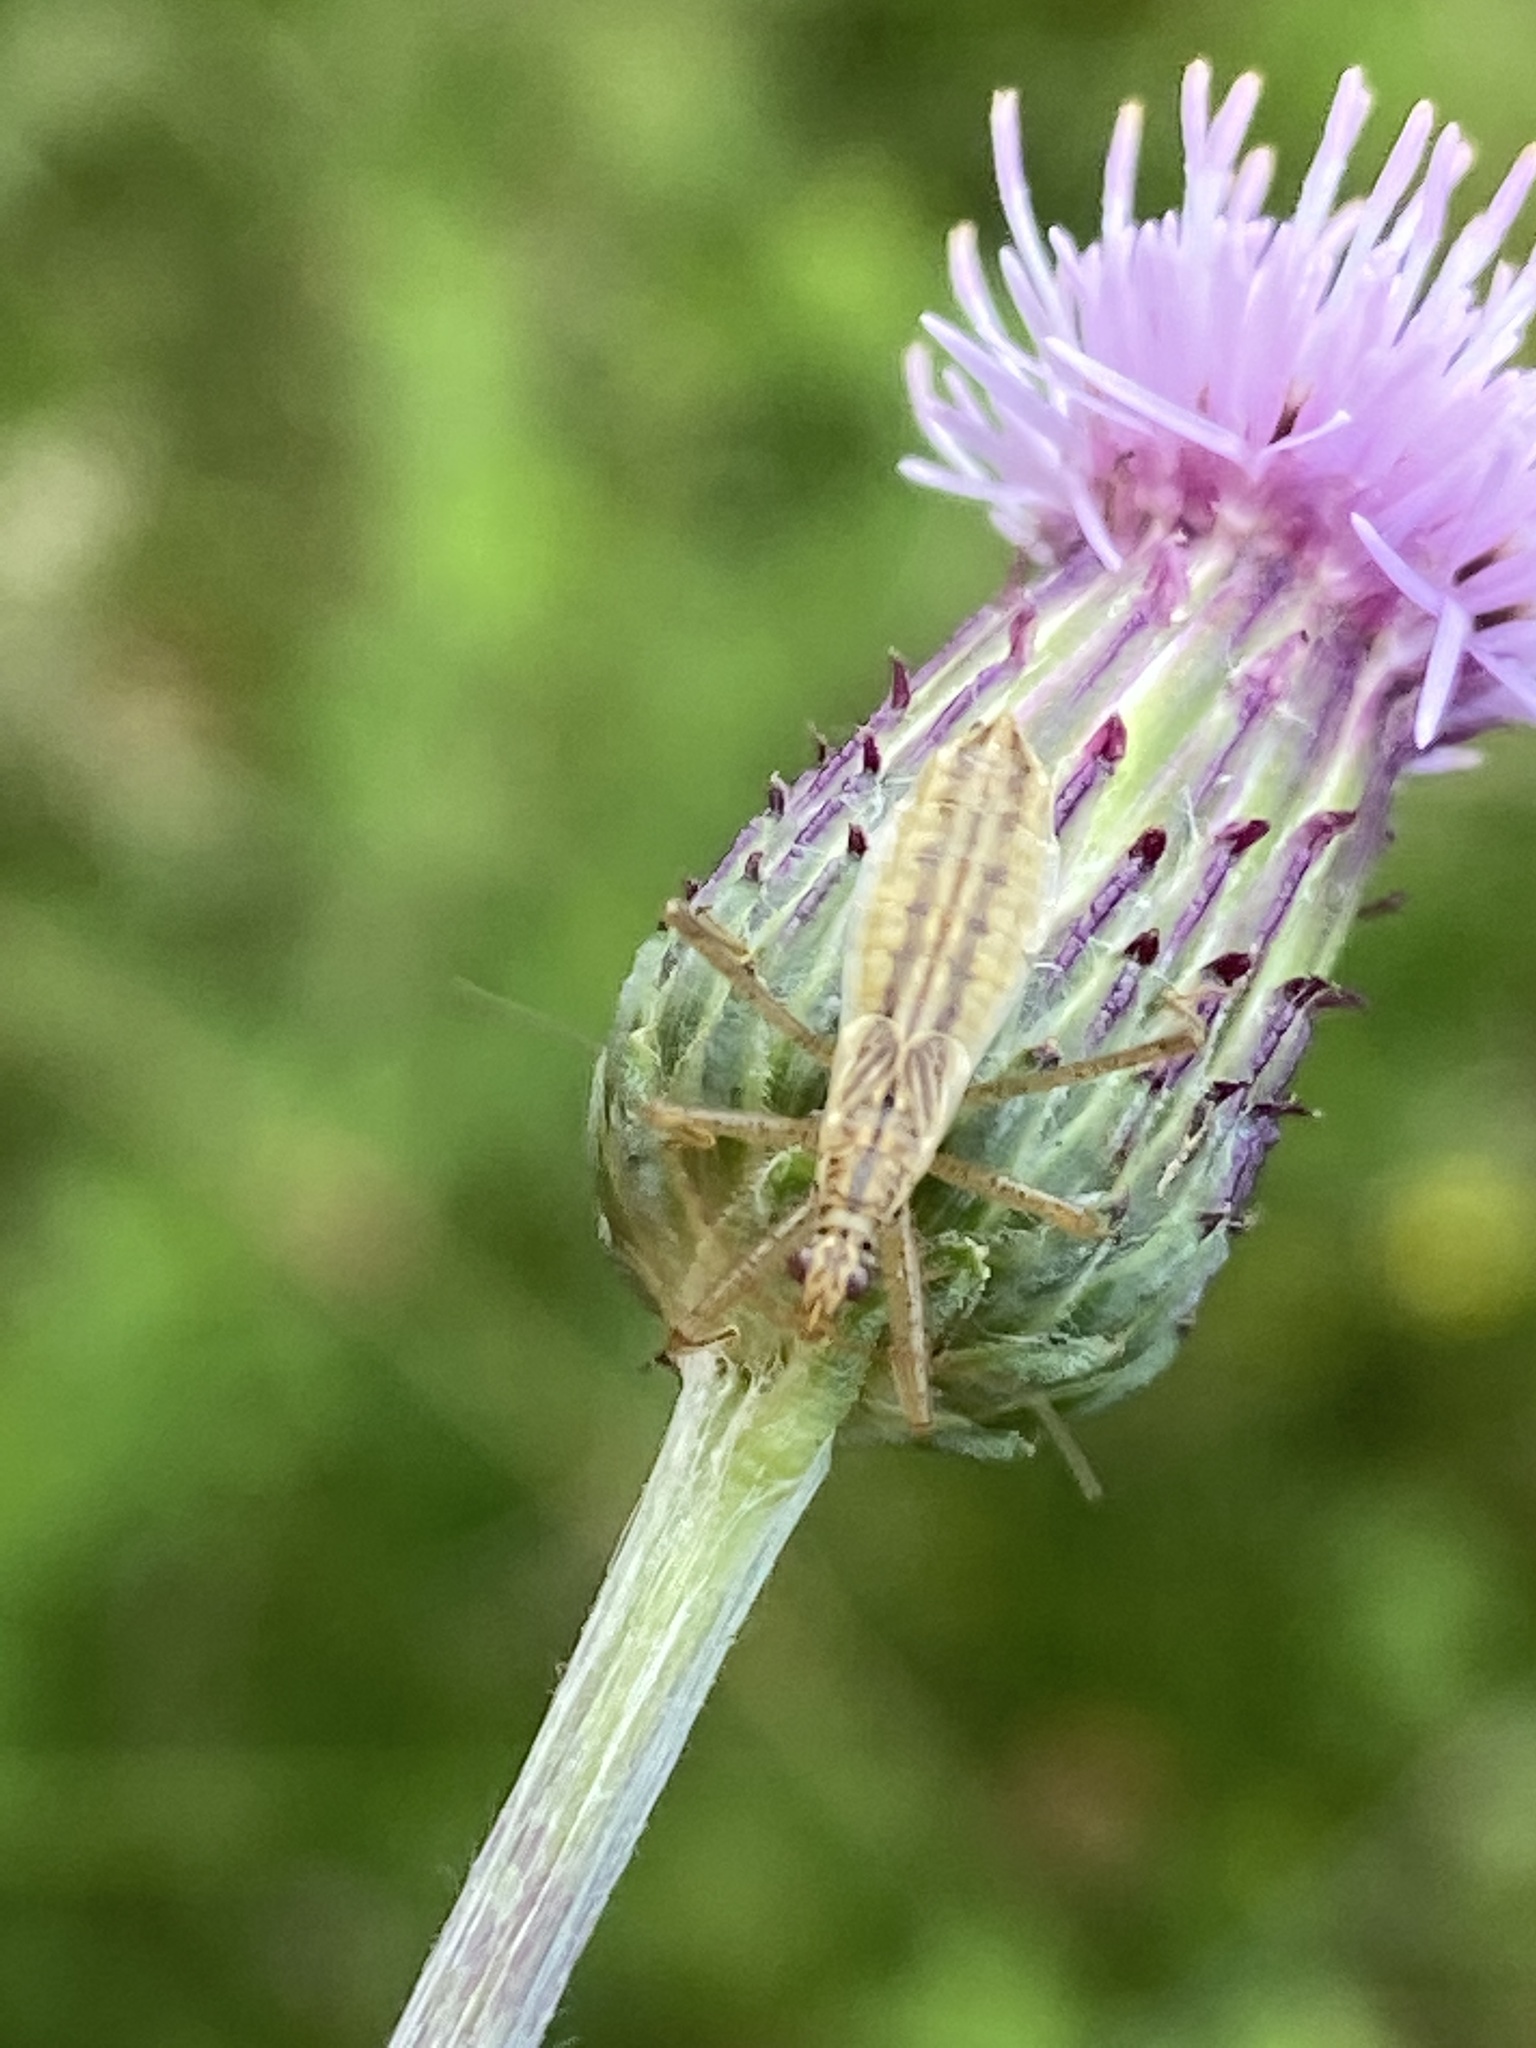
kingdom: Animalia
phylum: Arthropoda
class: Insecta
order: Hemiptera
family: Nabidae
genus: Nabis
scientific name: Nabis limbatus
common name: Marsh damselbug
